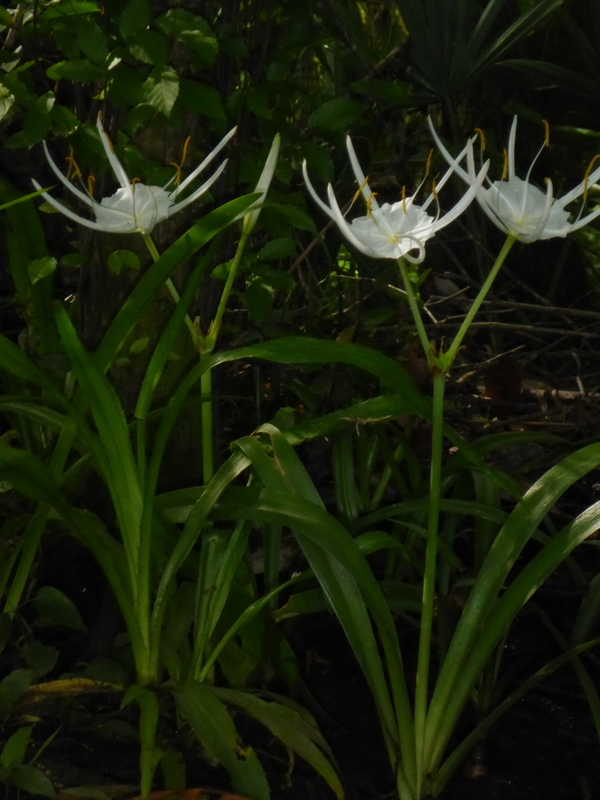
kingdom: Plantae
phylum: Tracheophyta
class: Liliopsida
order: Asparagales
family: Amaryllidaceae
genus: Hymenocallis
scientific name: Hymenocallis franklinensis
